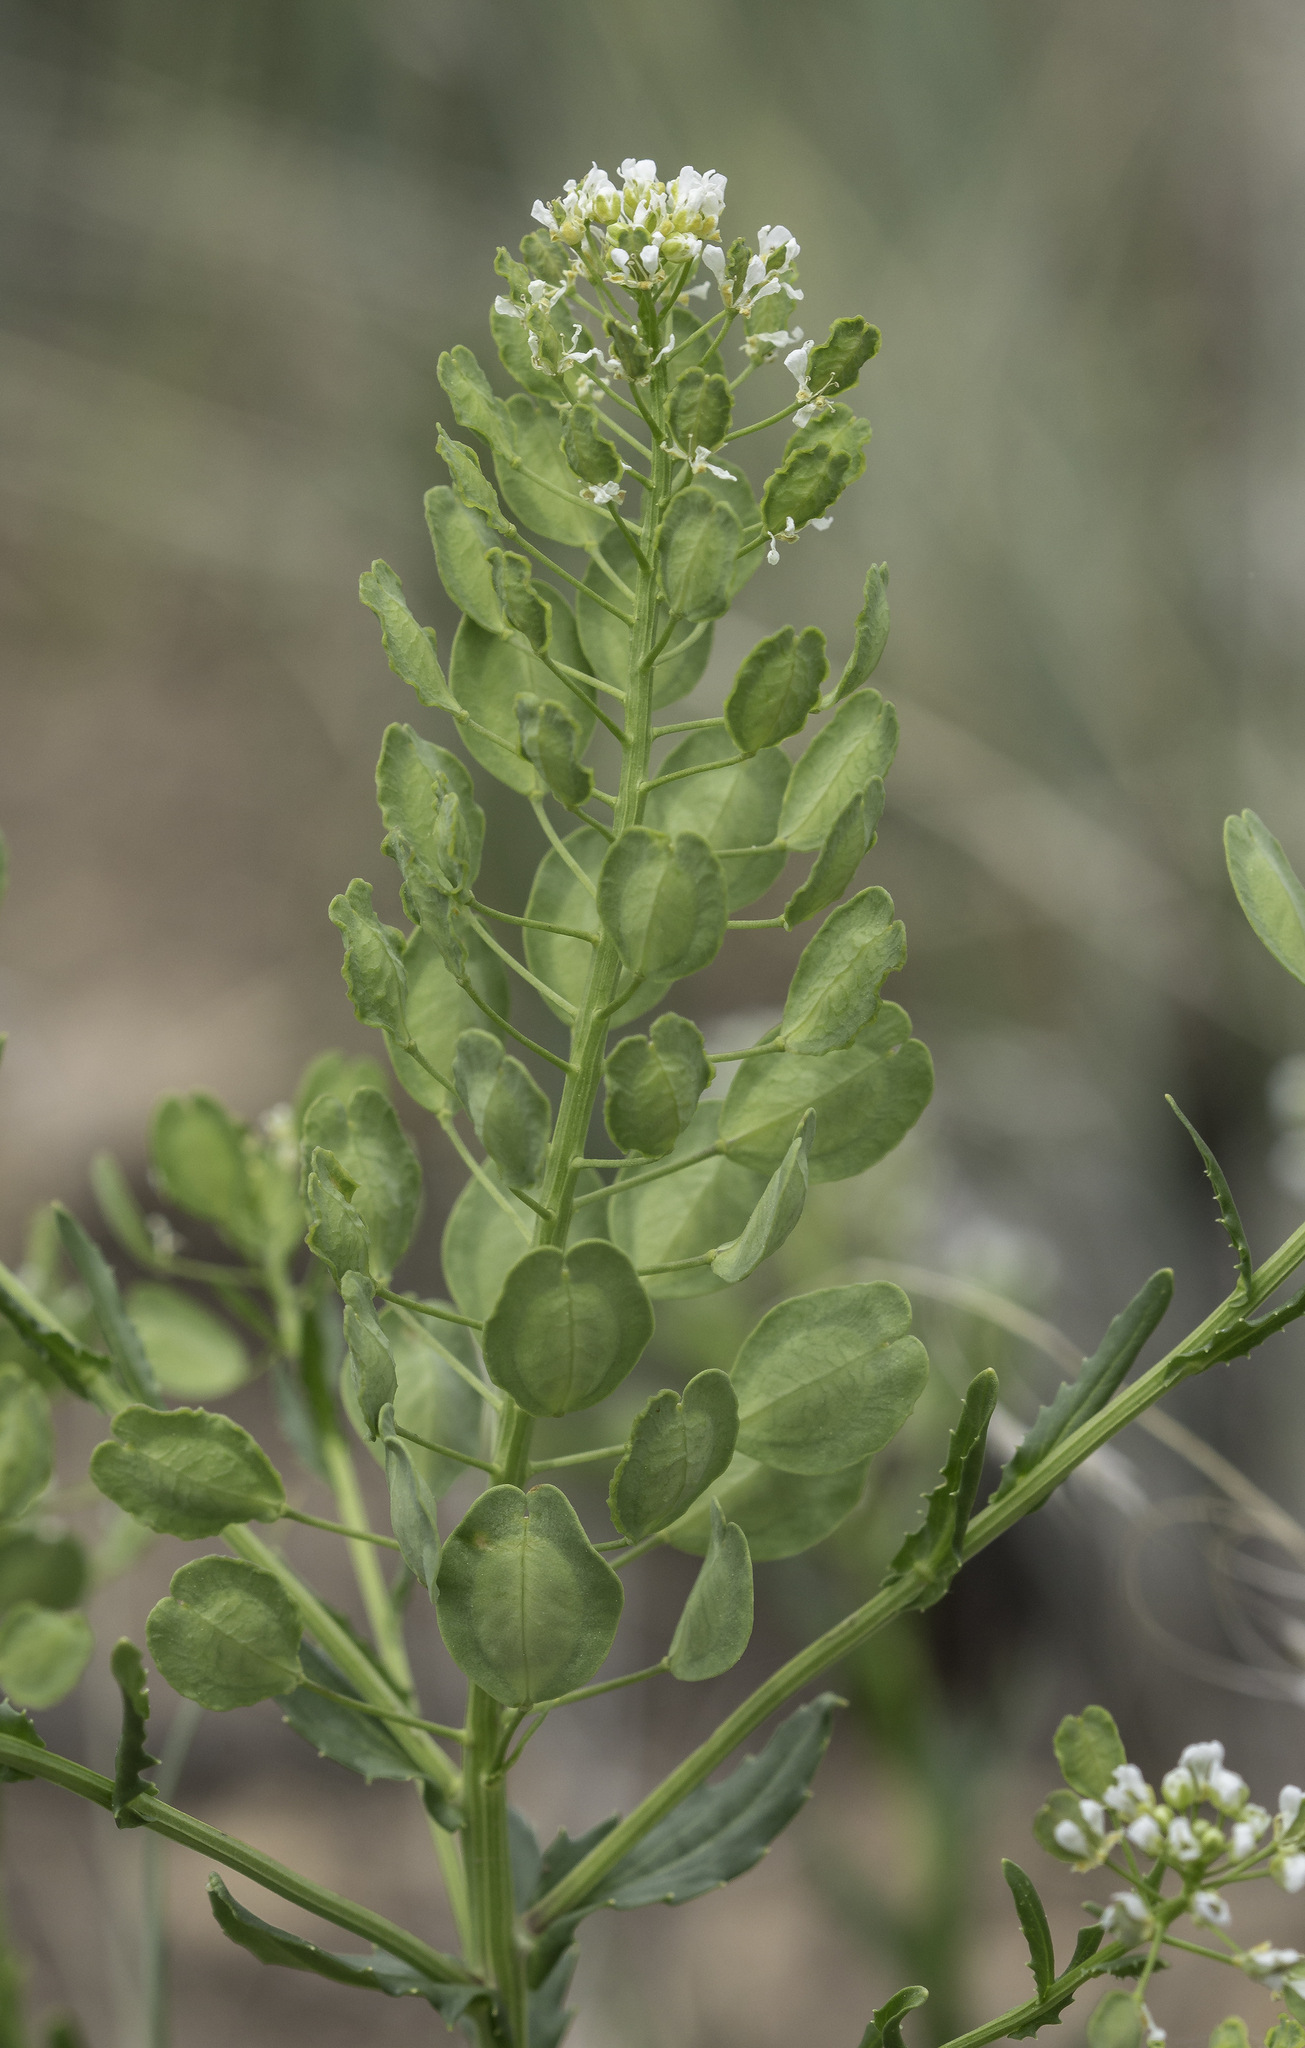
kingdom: Plantae
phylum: Tracheophyta
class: Magnoliopsida
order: Brassicales
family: Brassicaceae
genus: Thlaspi
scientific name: Thlaspi arvense
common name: Field pennycress
